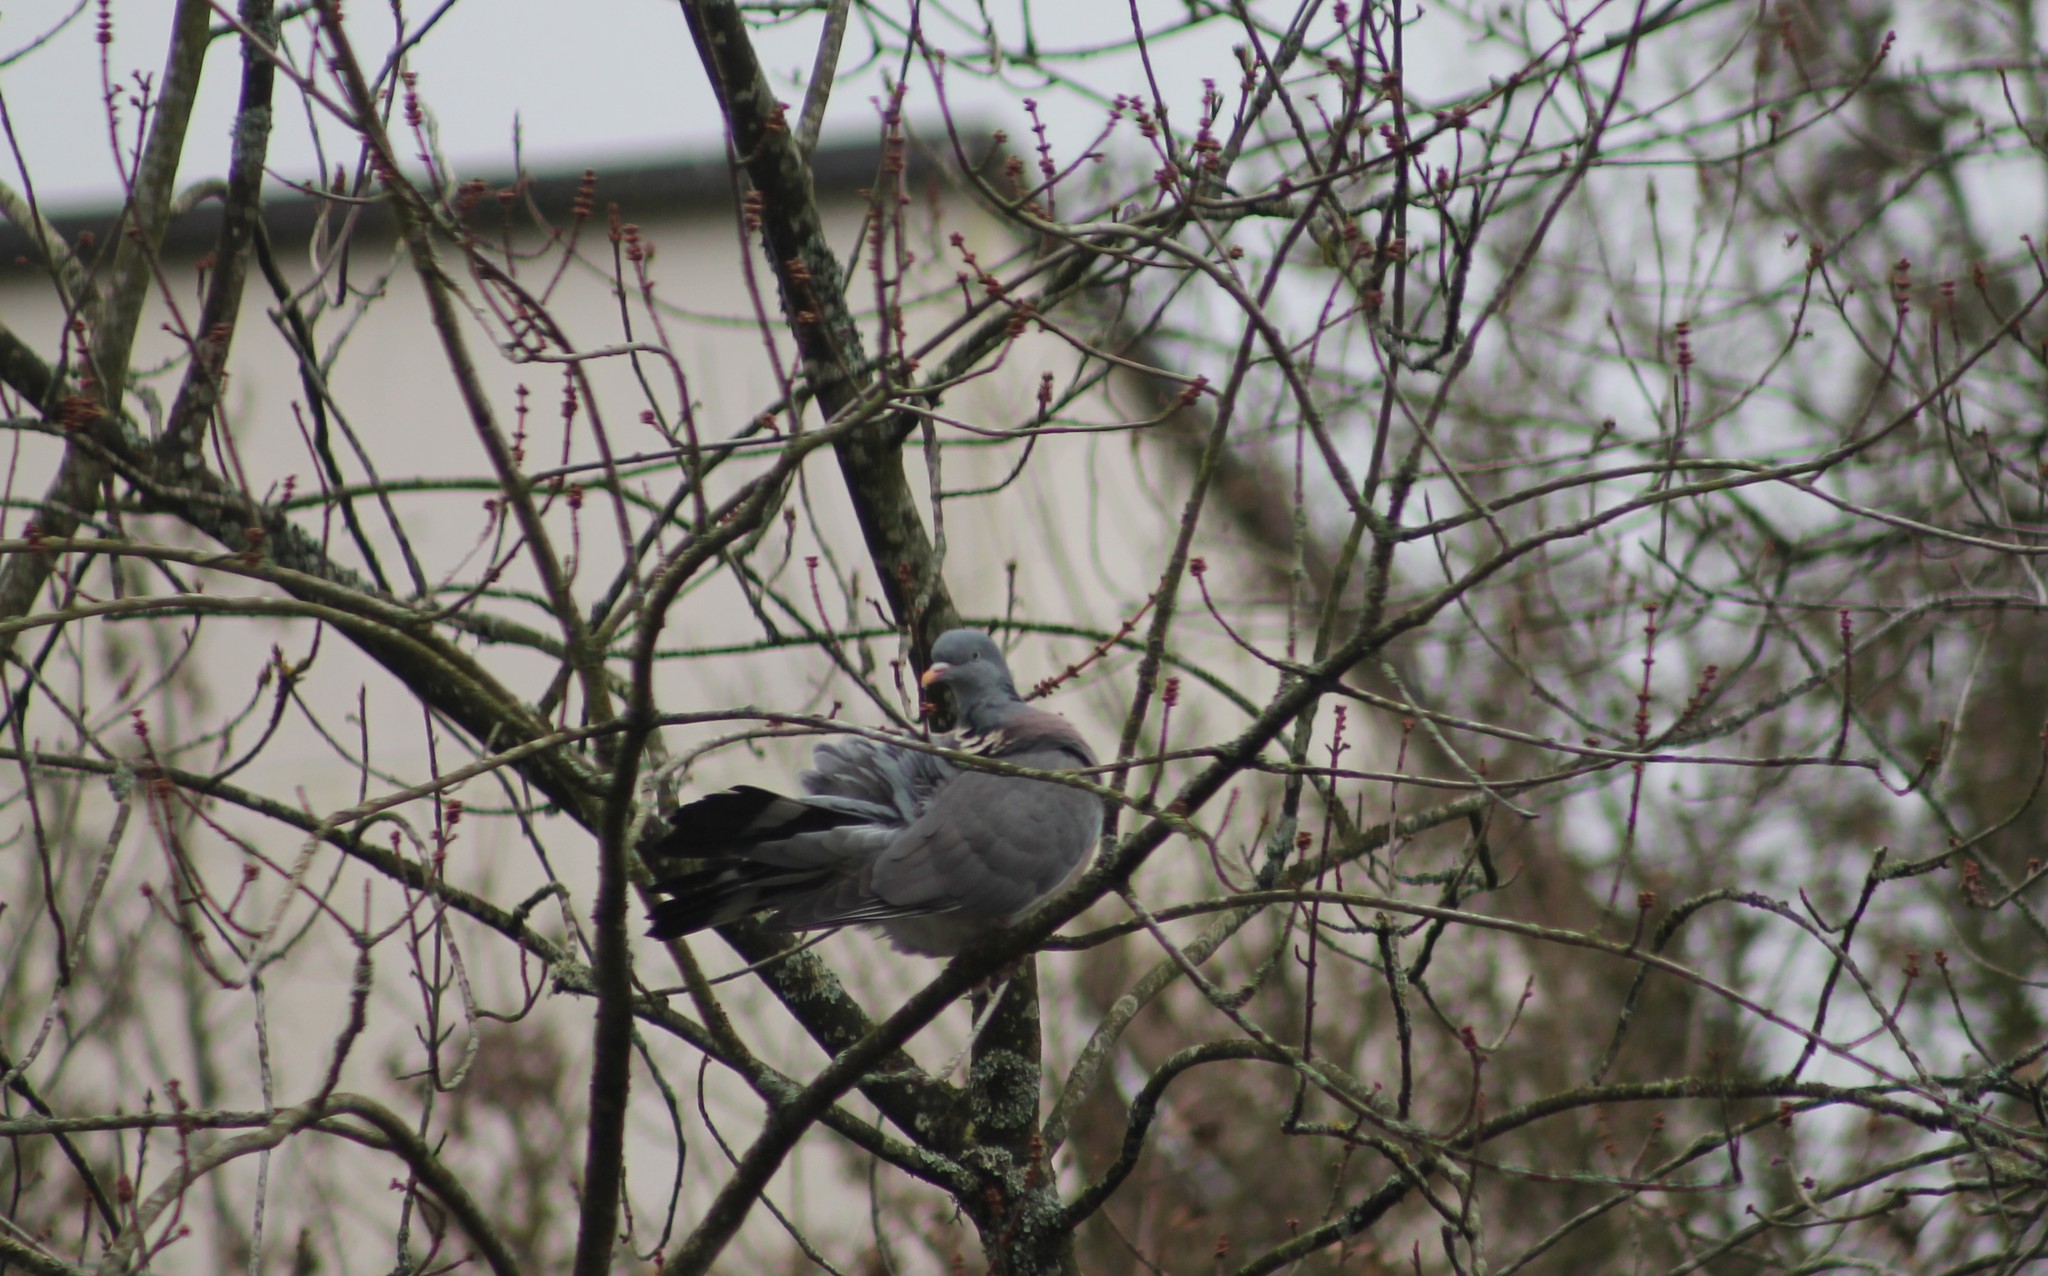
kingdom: Animalia
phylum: Chordata
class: Aves
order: Columbiformes
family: Columbidae
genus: Columba
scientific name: Columba palumbus
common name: Common wood pigeon
